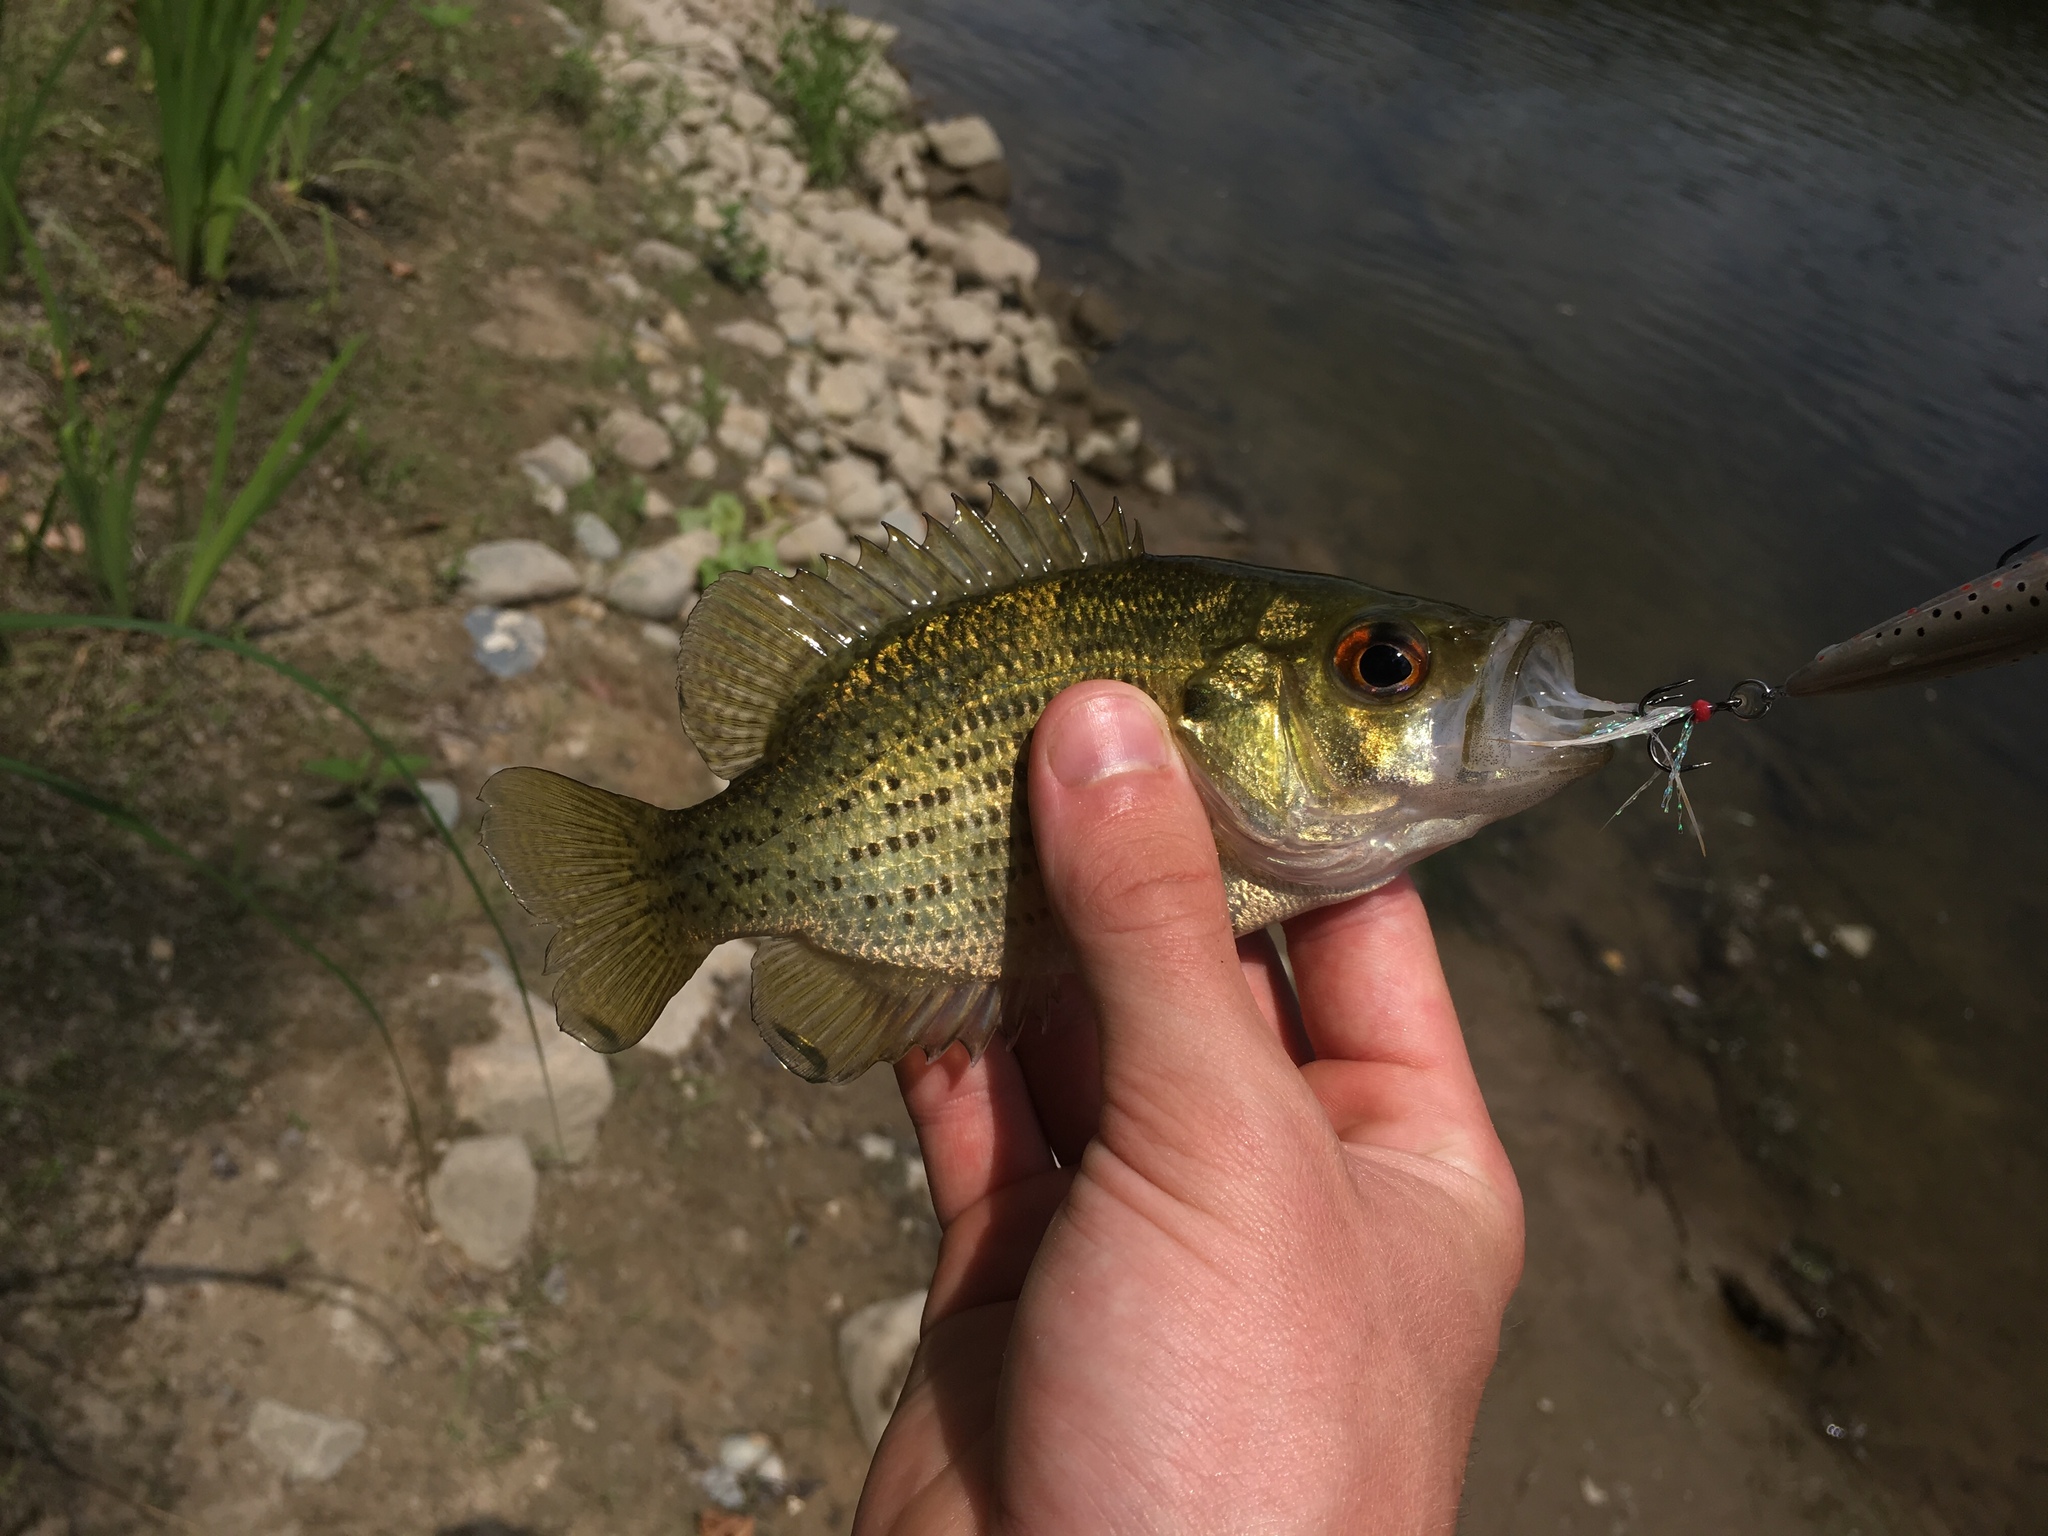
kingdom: Animalia
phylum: Chordata
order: Perciformes
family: Centrarchidae
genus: Ambloplites
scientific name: Ambloplites rupestris
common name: Rock bass
